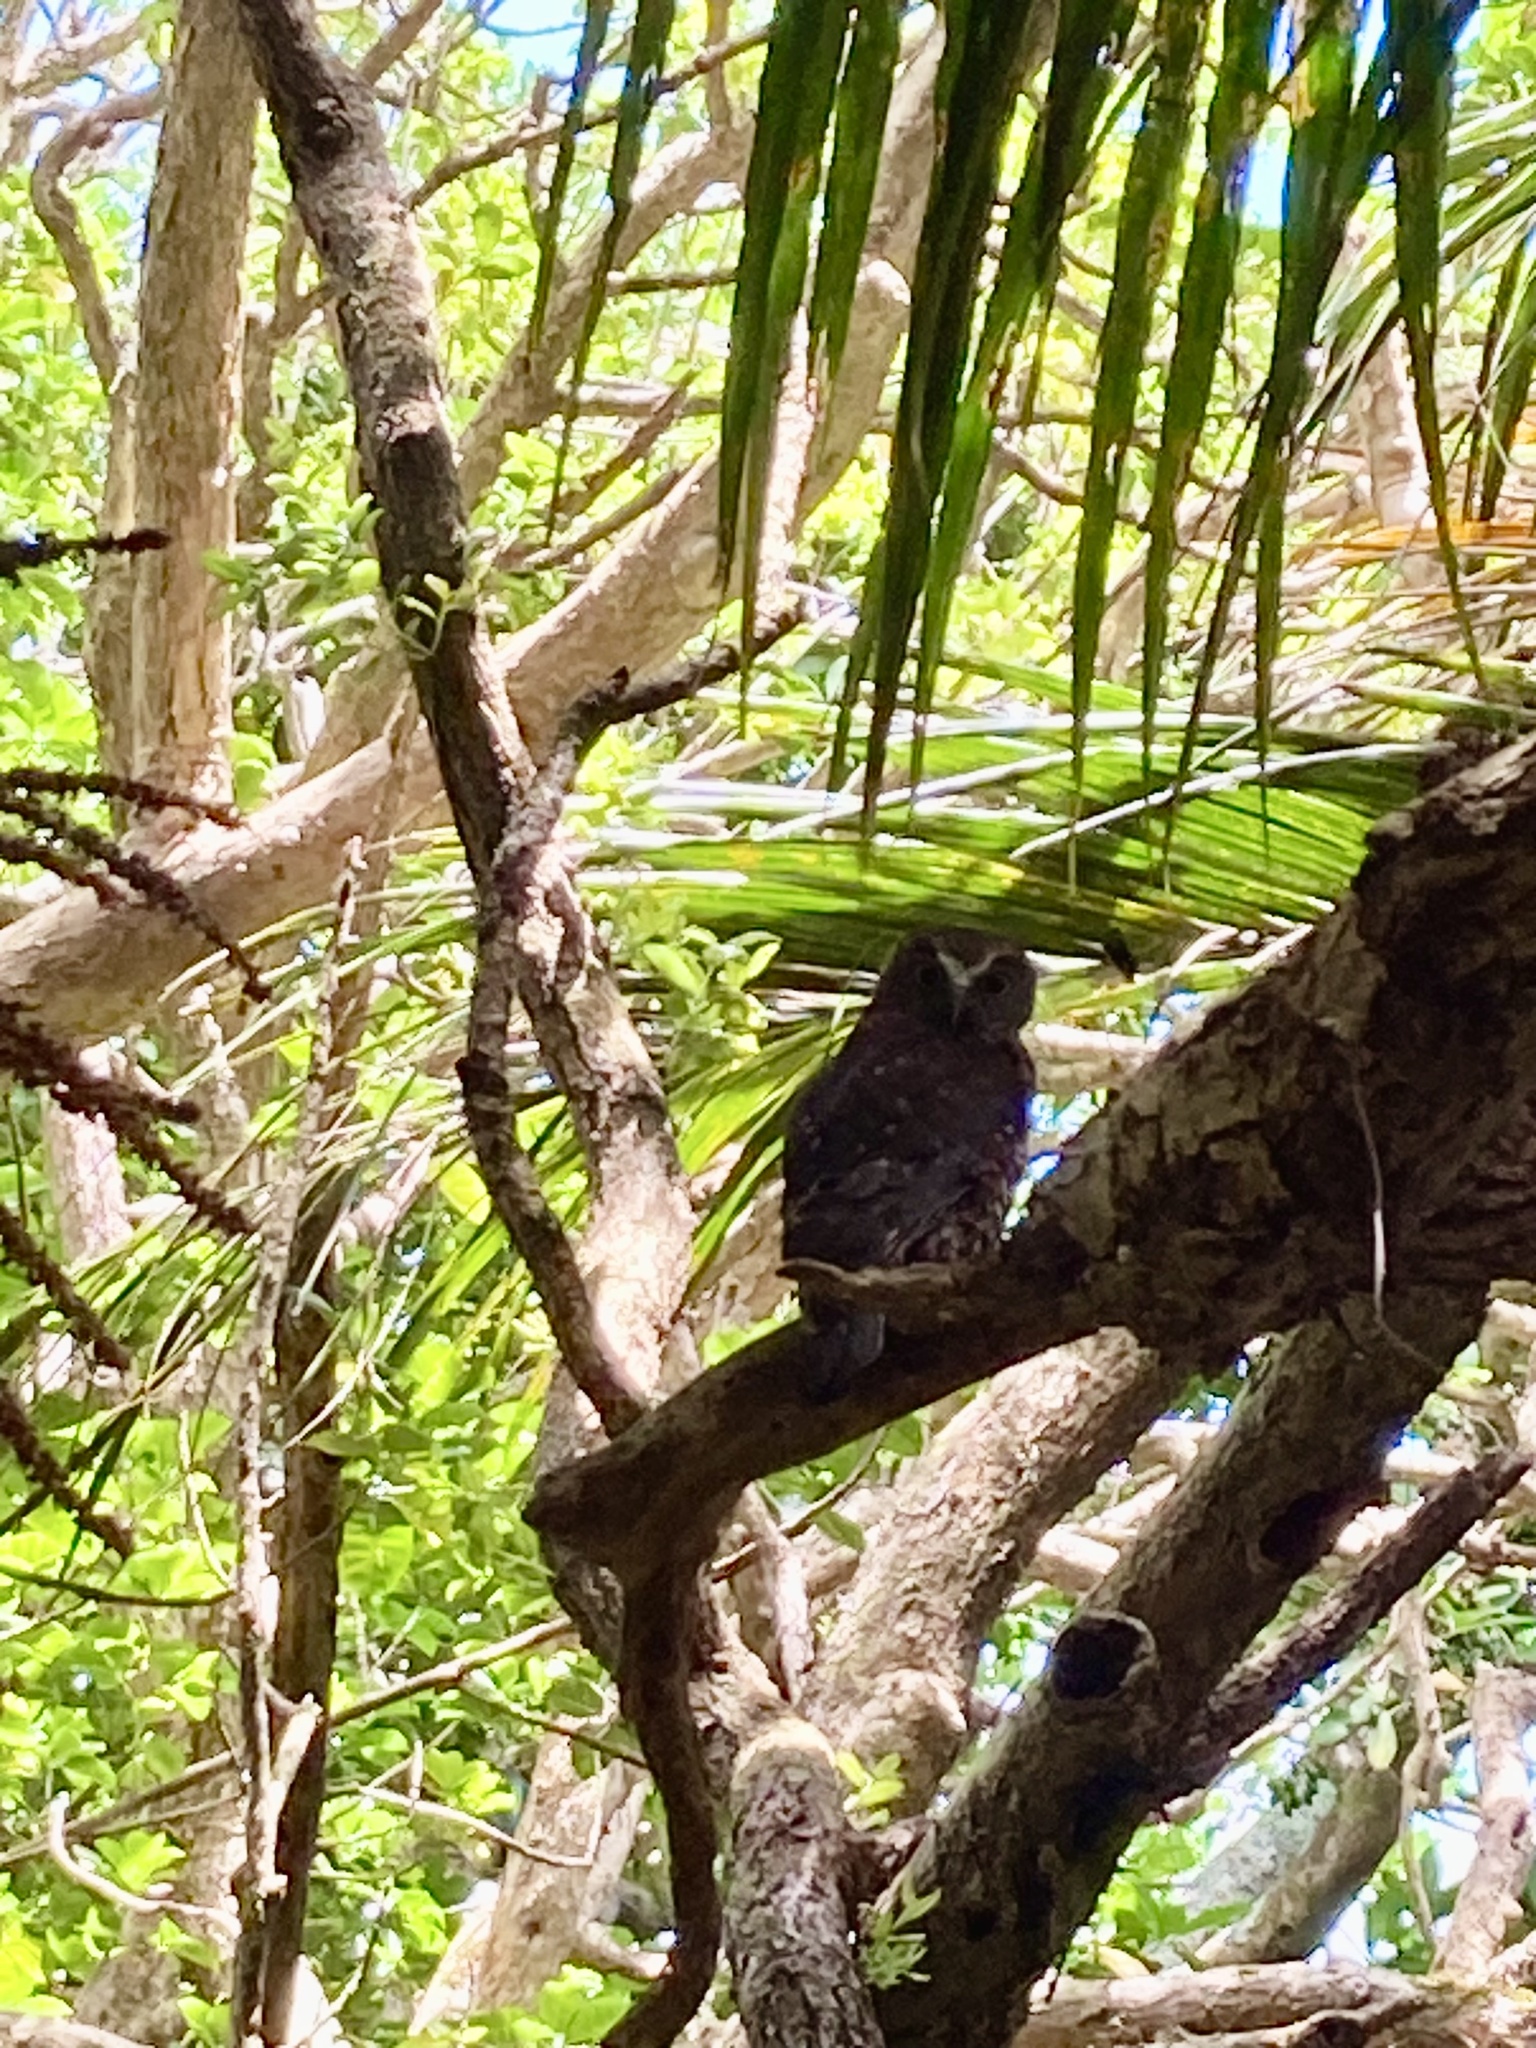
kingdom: Animalia
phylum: Chordata
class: Aves
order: Strigiformes
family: Strigidae
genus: Ninox
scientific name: Ninox novaeseelandiae
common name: Morepork
